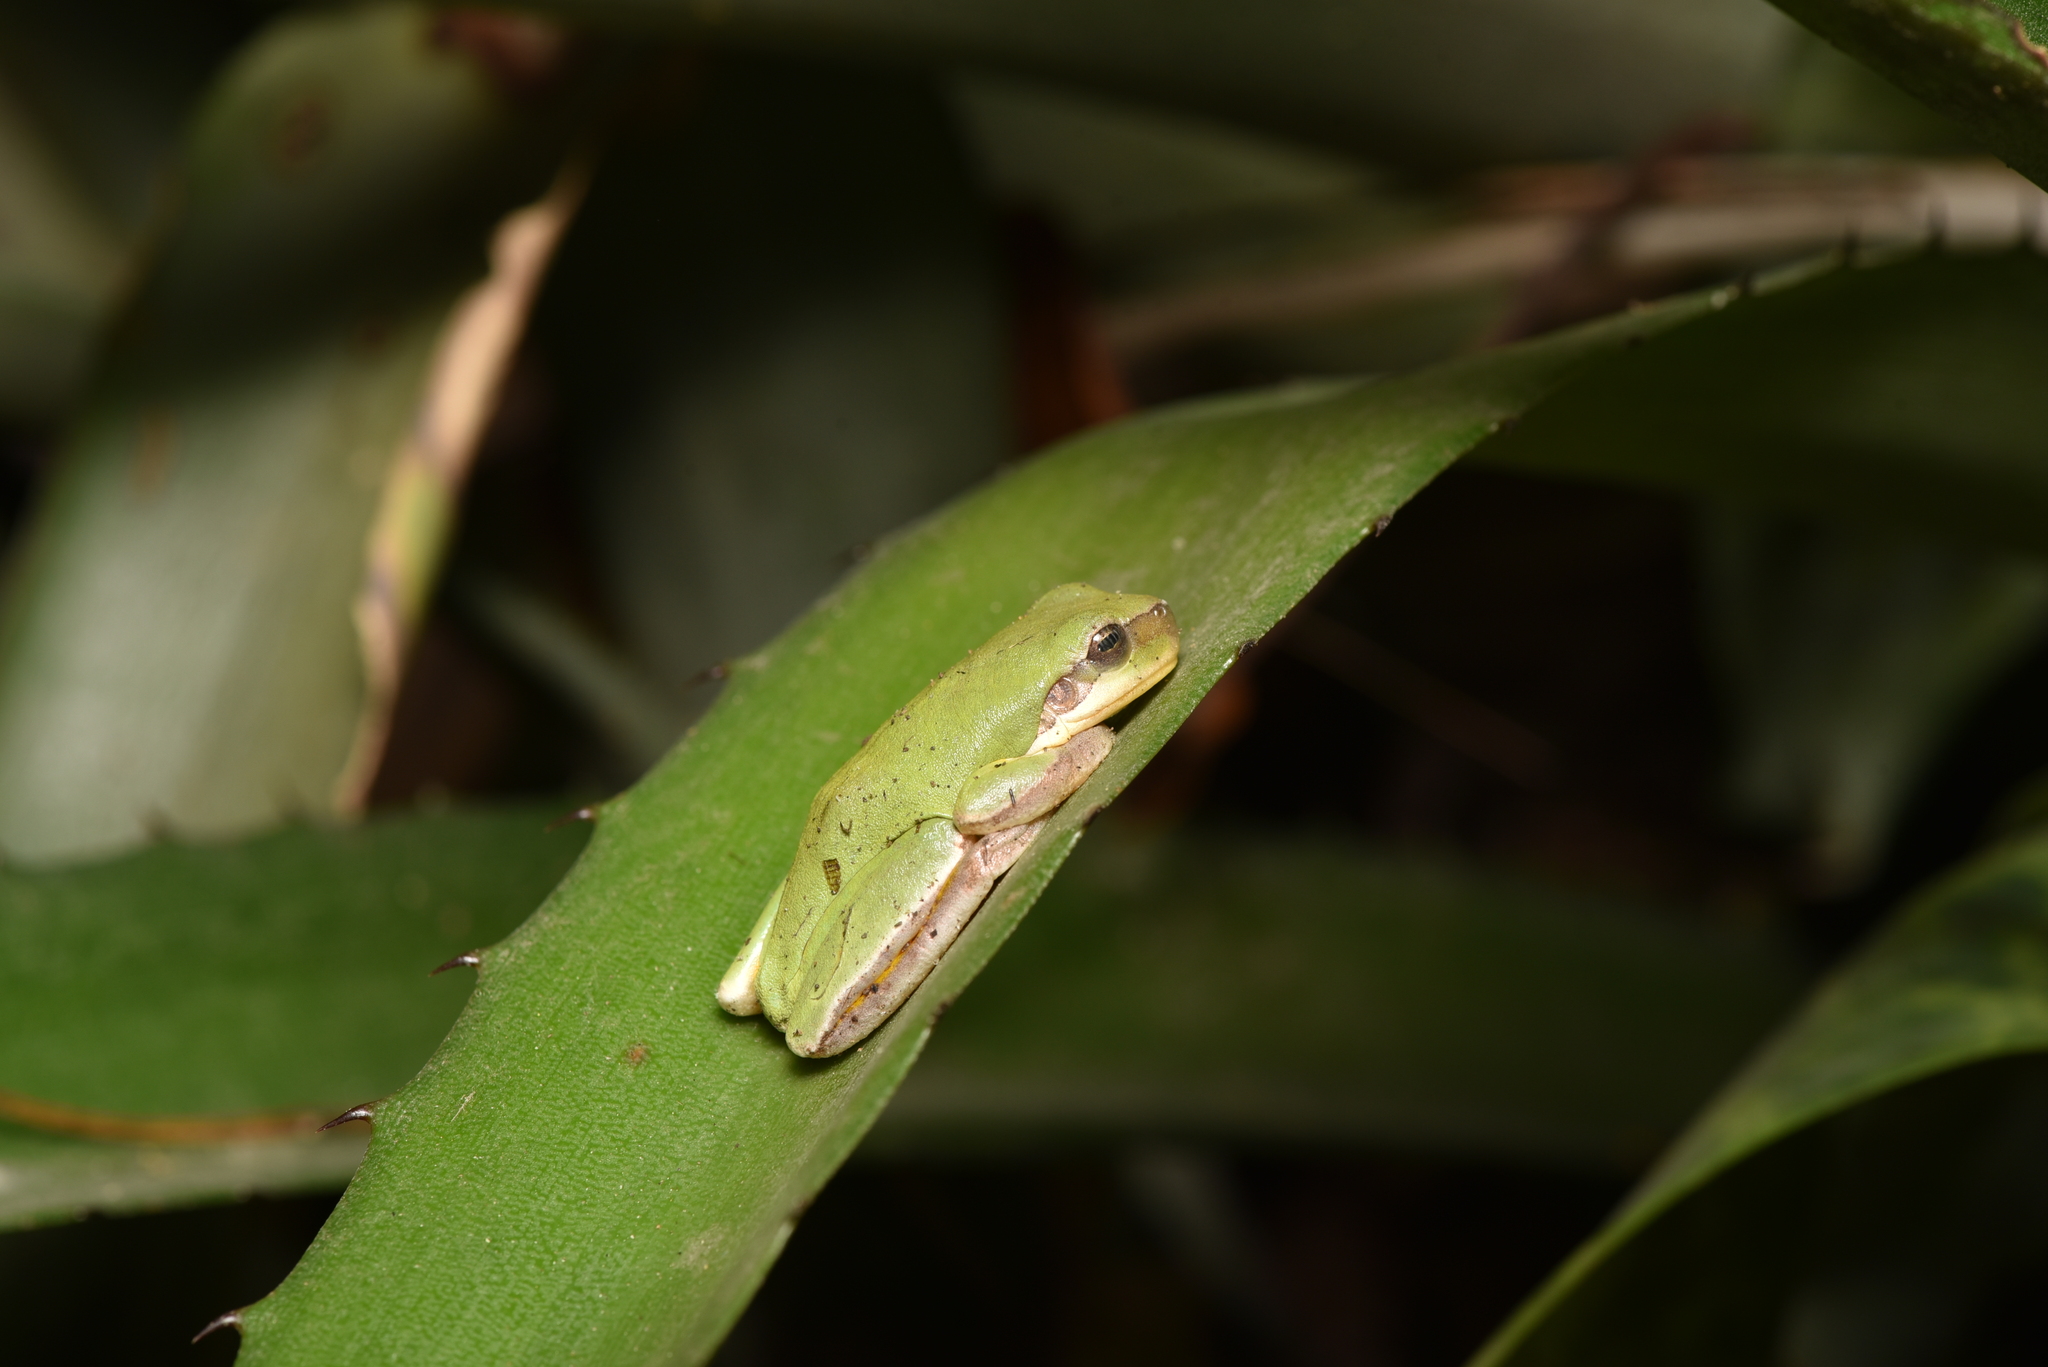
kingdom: Animalia
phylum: Chordata
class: Amphibia
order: Anura
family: Hylidae
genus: Hyla
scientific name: Hyla chinensis
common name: Common chinese treefrog
